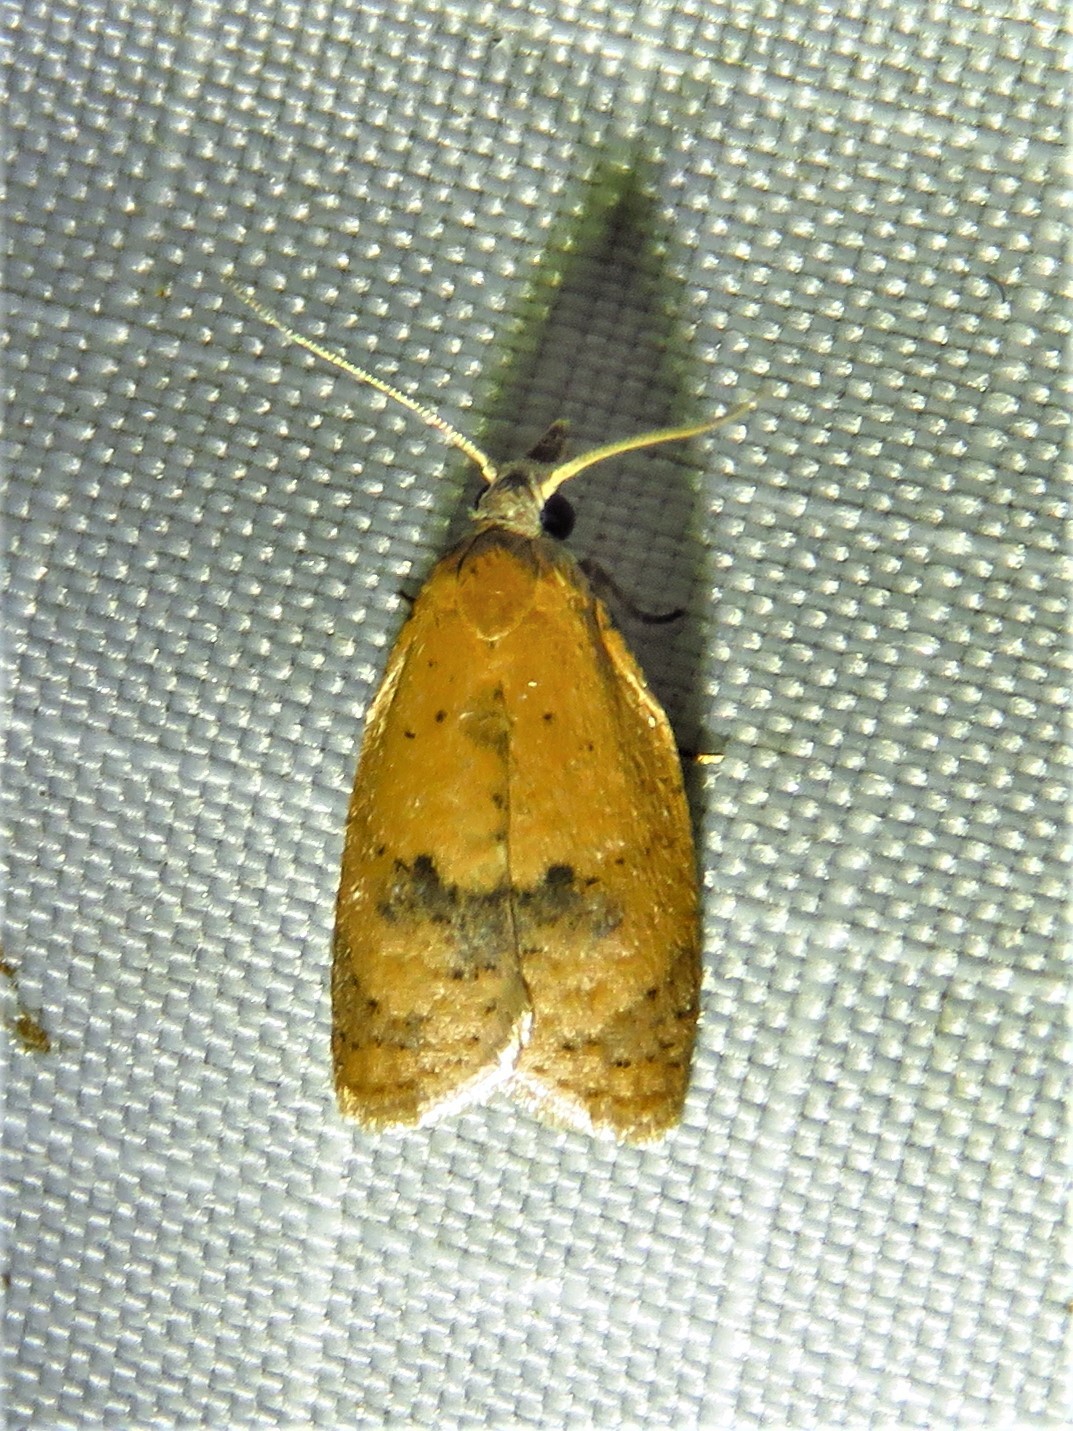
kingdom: Animalia
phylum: Arthropoda
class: Insecta
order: Lepidoptera
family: Tortricidae
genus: Sparganothoides
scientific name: Sparganothoides lentiginosana
